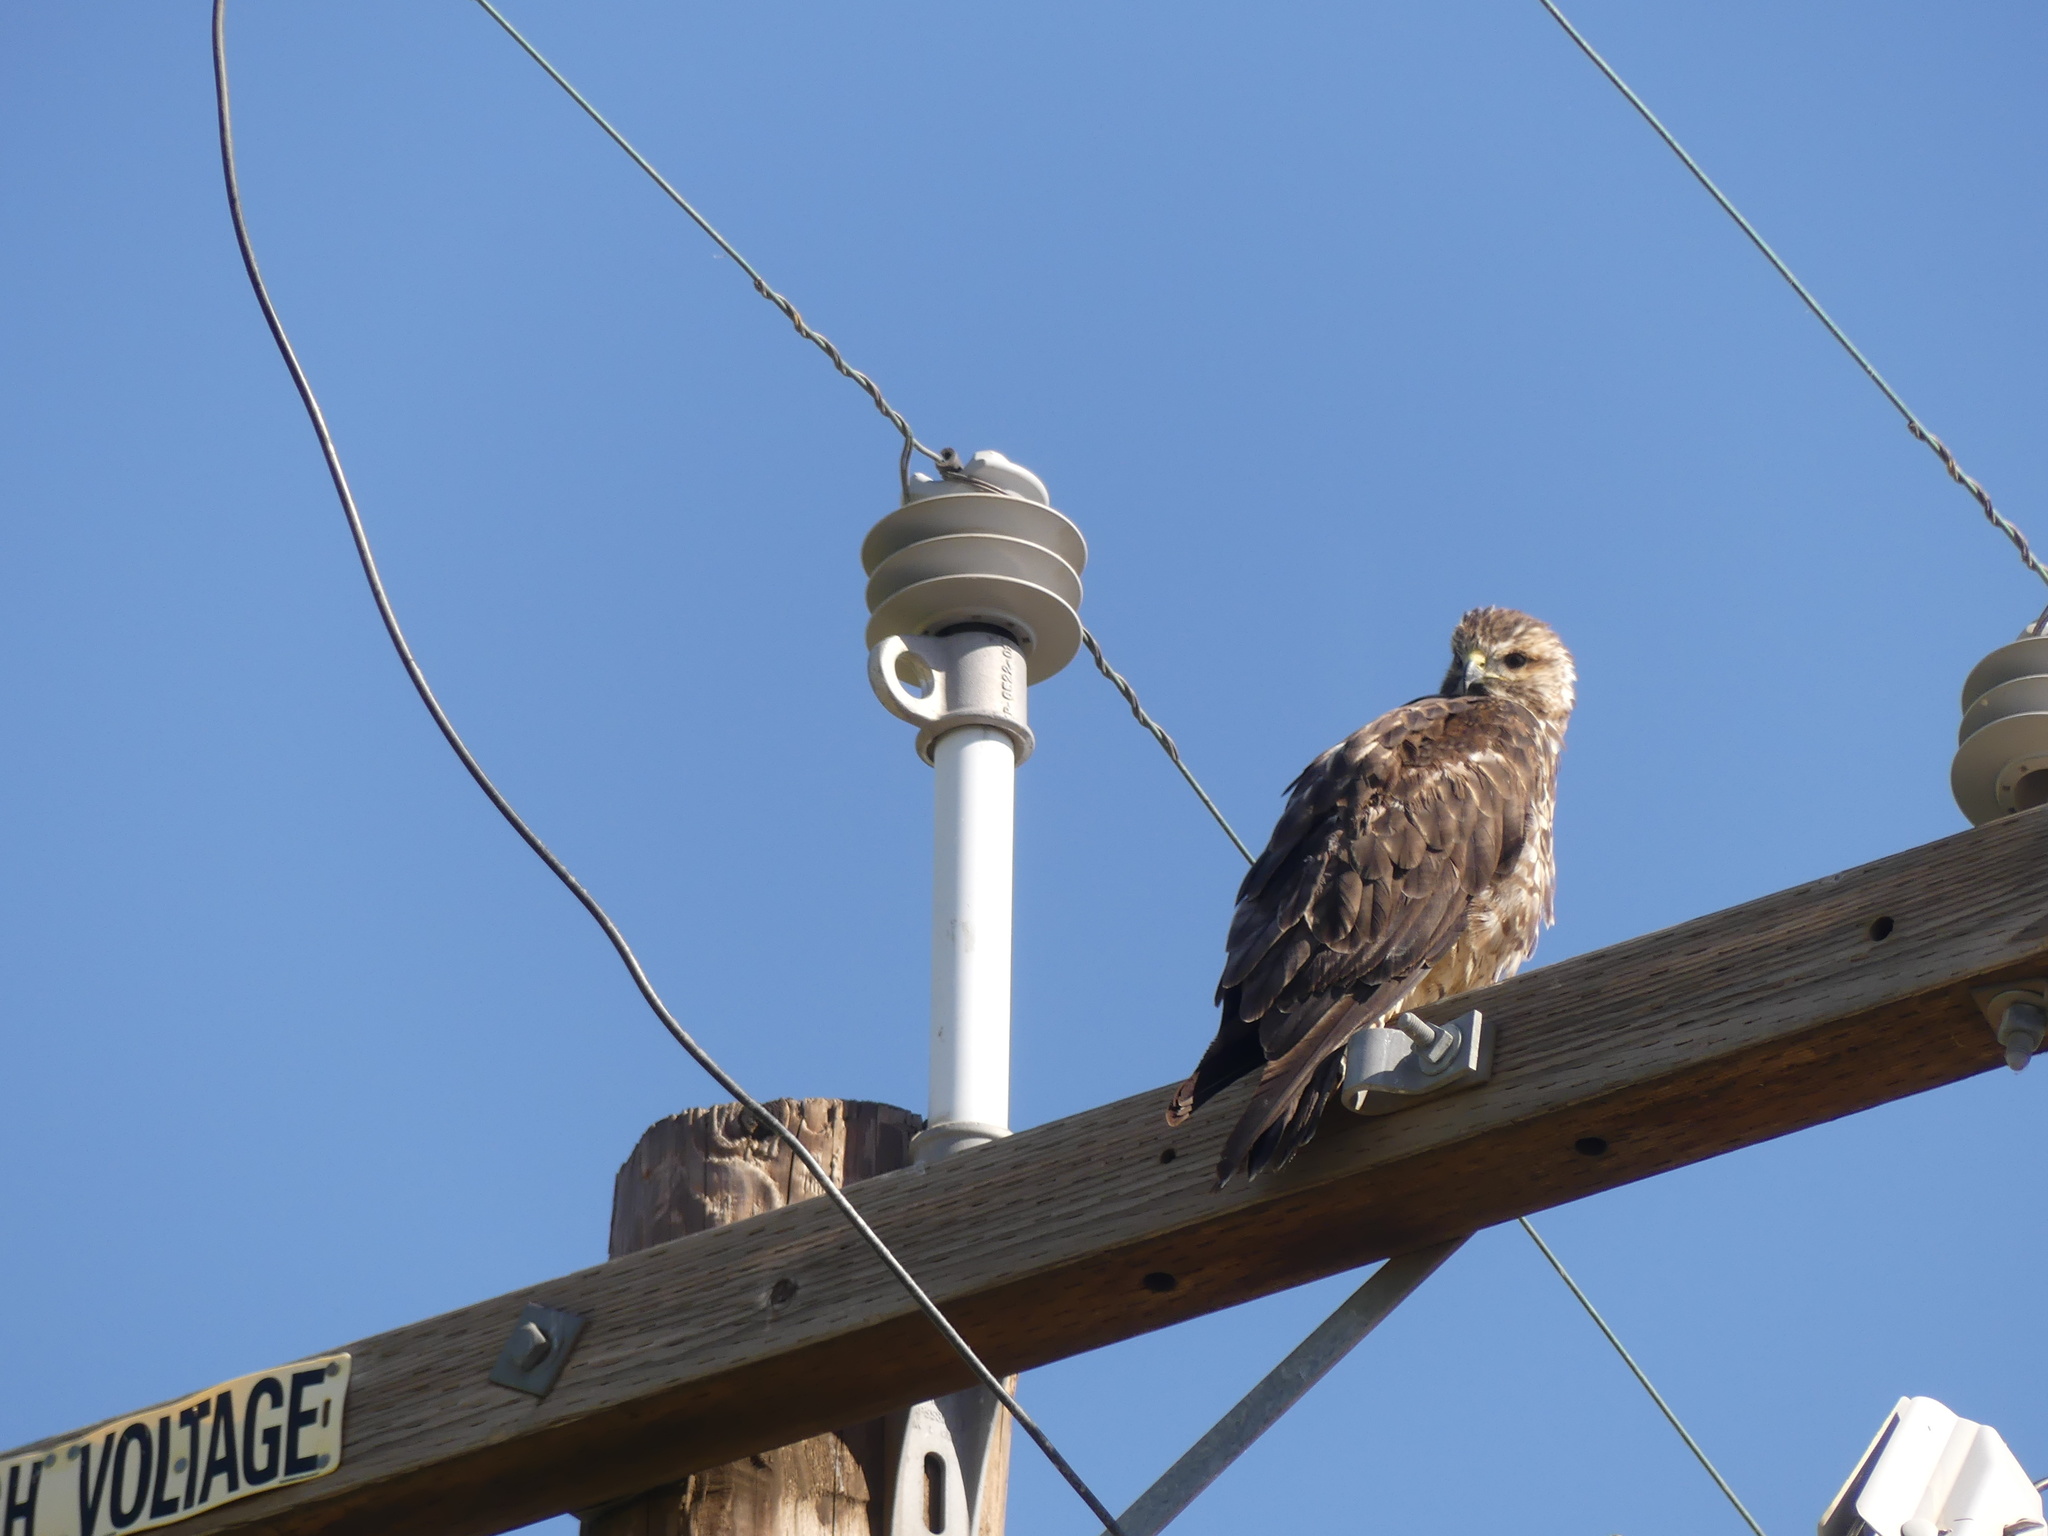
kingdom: Animalia
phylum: Chordata
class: Aves
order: Accipitriformes
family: Accipitridae
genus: Buteo
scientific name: Buteo jamaicensis
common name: Red-tailed hawk
